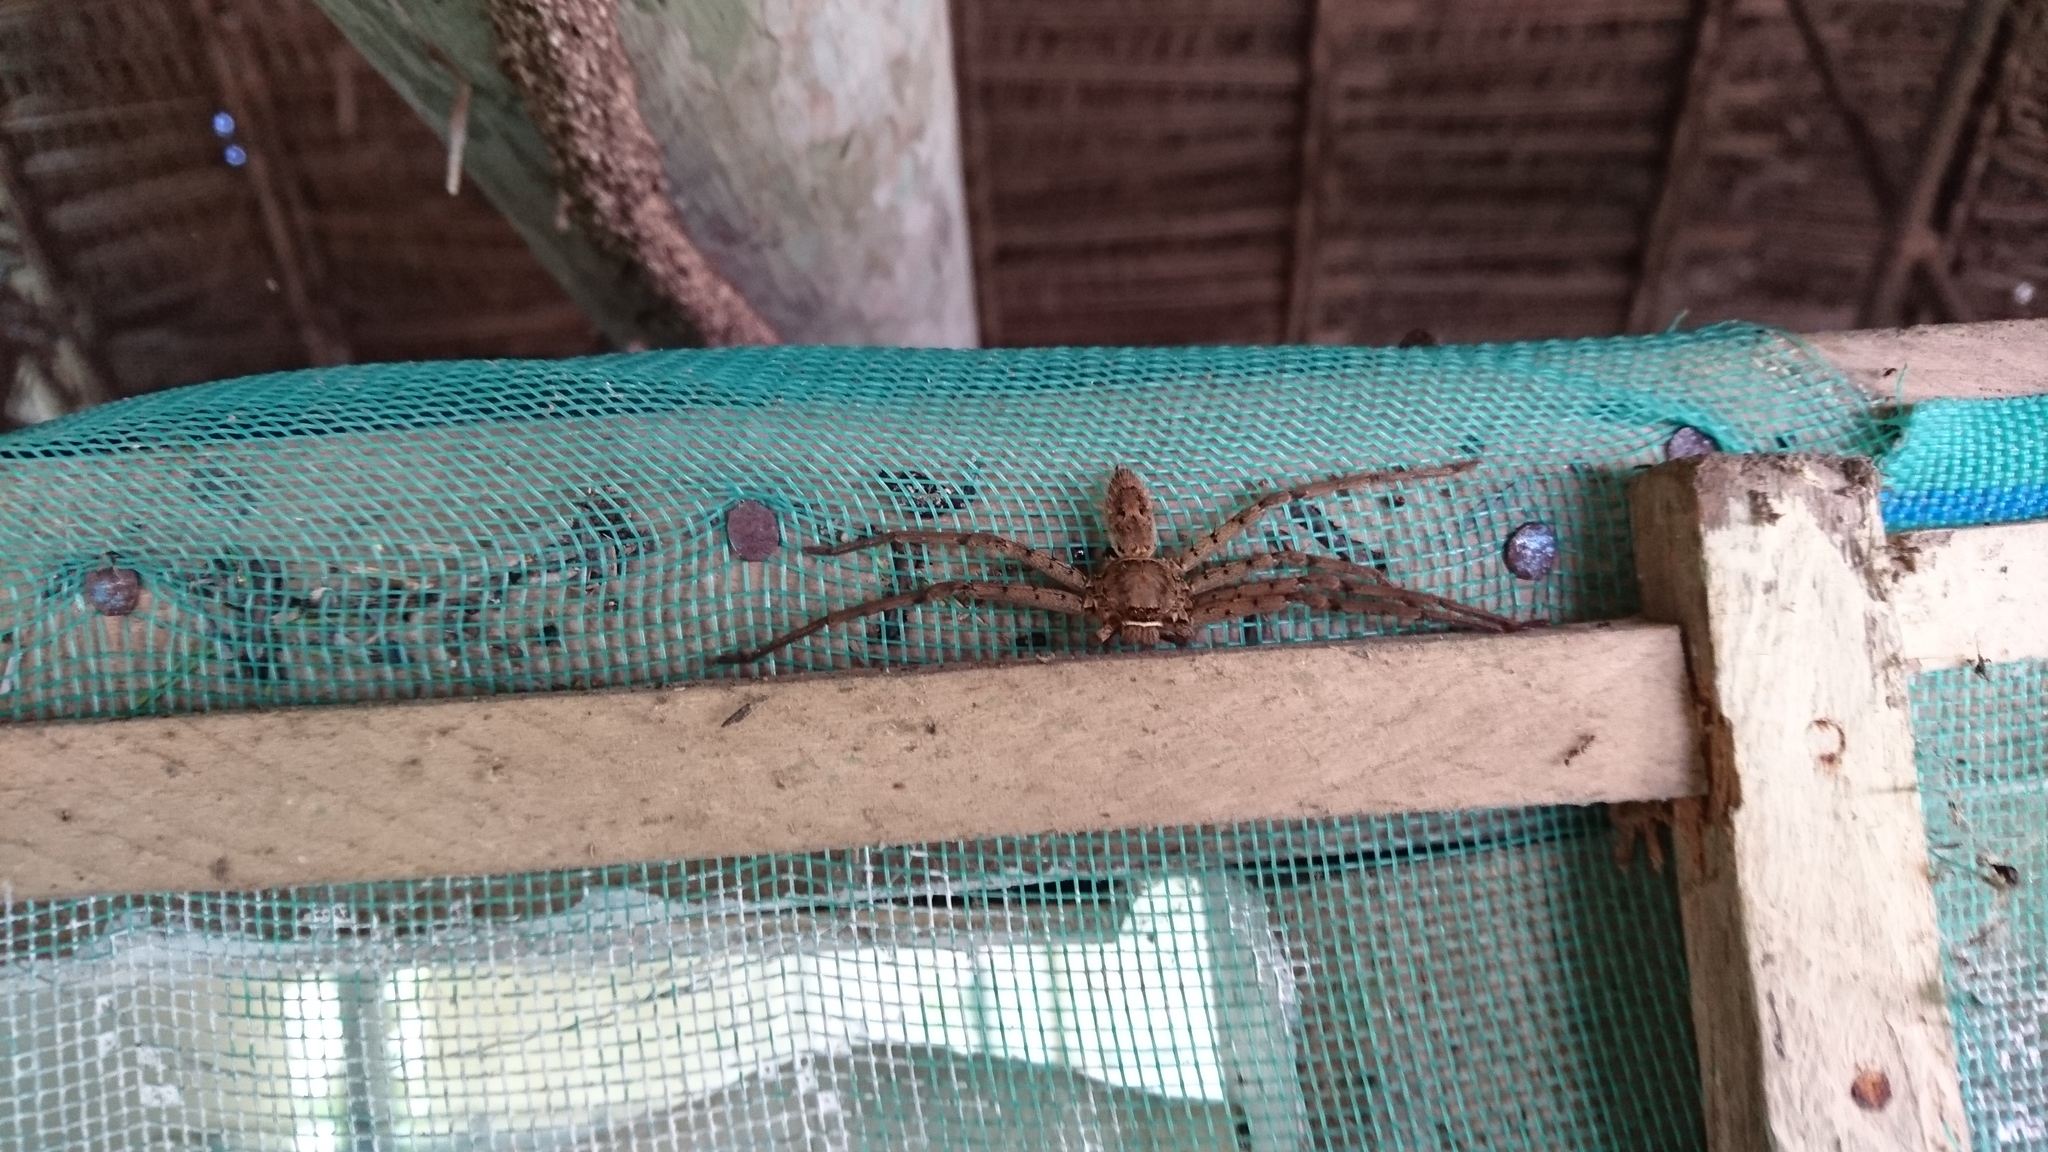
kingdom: Animalia
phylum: Arthropoda
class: Arachnida
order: Araneae
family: Sparassidae
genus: Heteropoda
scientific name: Heteropoda venatoria
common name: Huntsman spider
